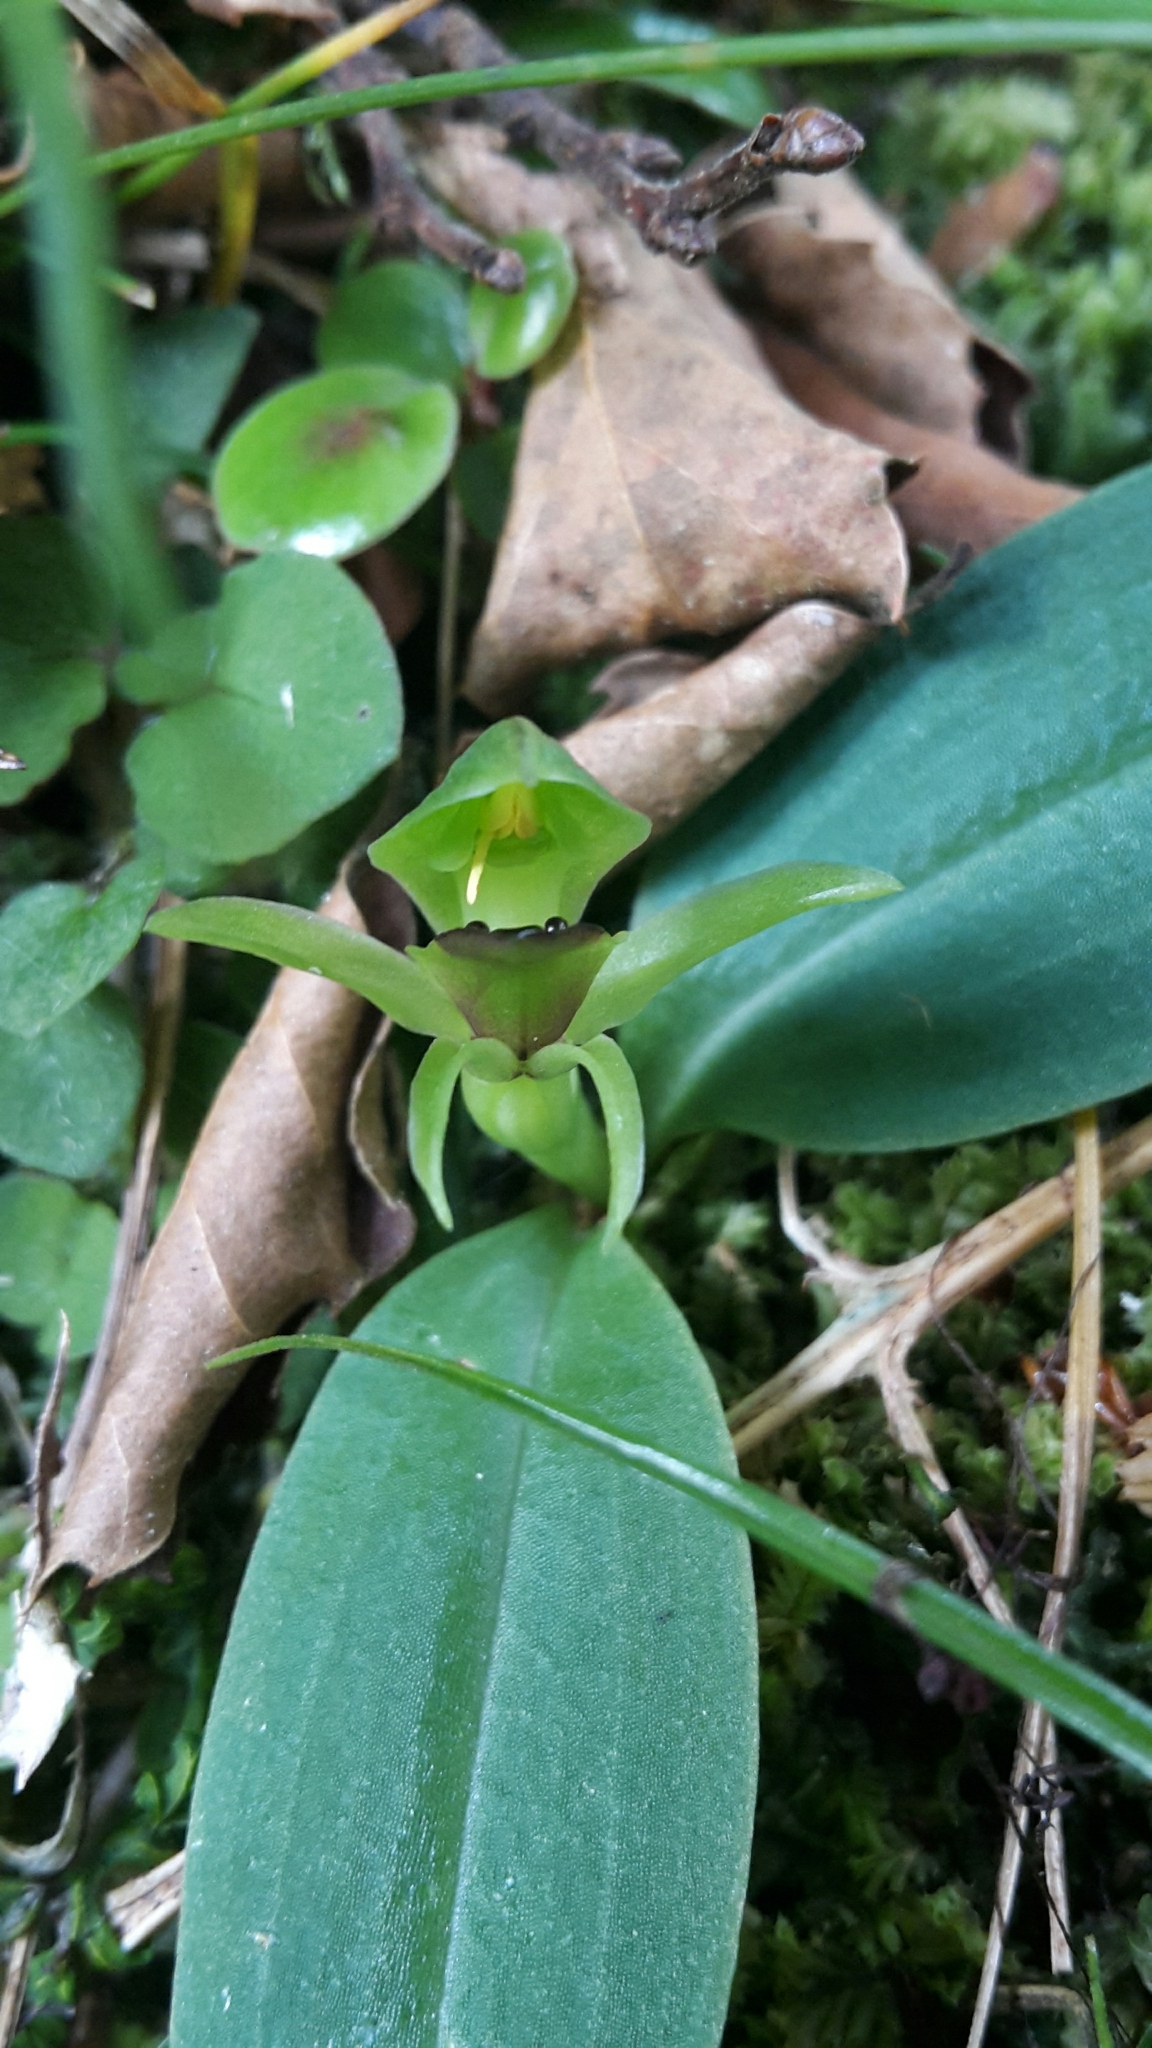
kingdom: Plantae
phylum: Tracheophyta
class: Liliopsida
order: Asparagales
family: Orchidaceae
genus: Chiloglottis
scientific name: Chiloglottis cornuta
